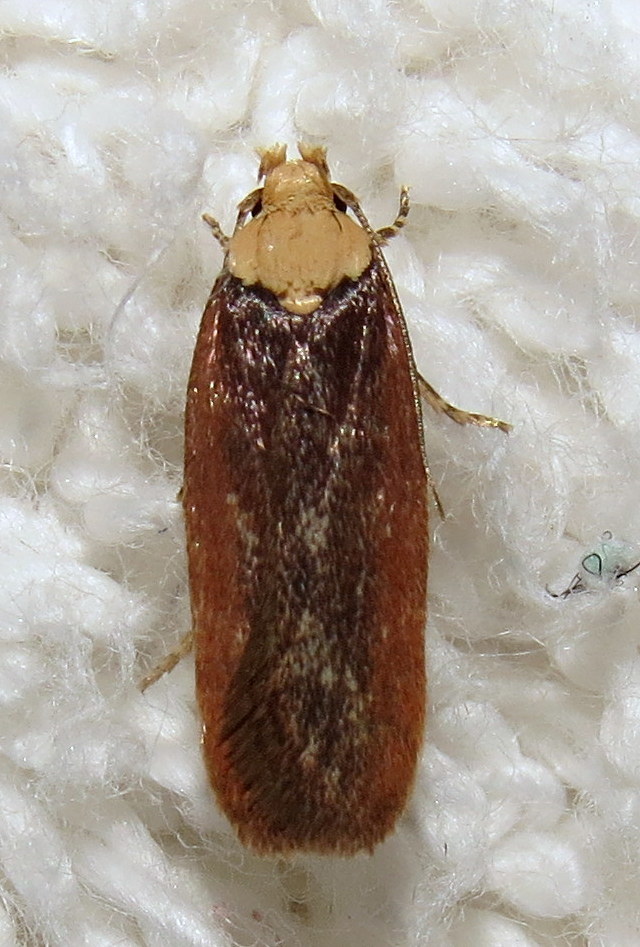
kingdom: Animalia
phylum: Arthropoda
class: Insecta
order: Lepidoptera
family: Depressariidae
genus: Depressaria
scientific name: Depressaria depressana
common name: Lost flat-body
